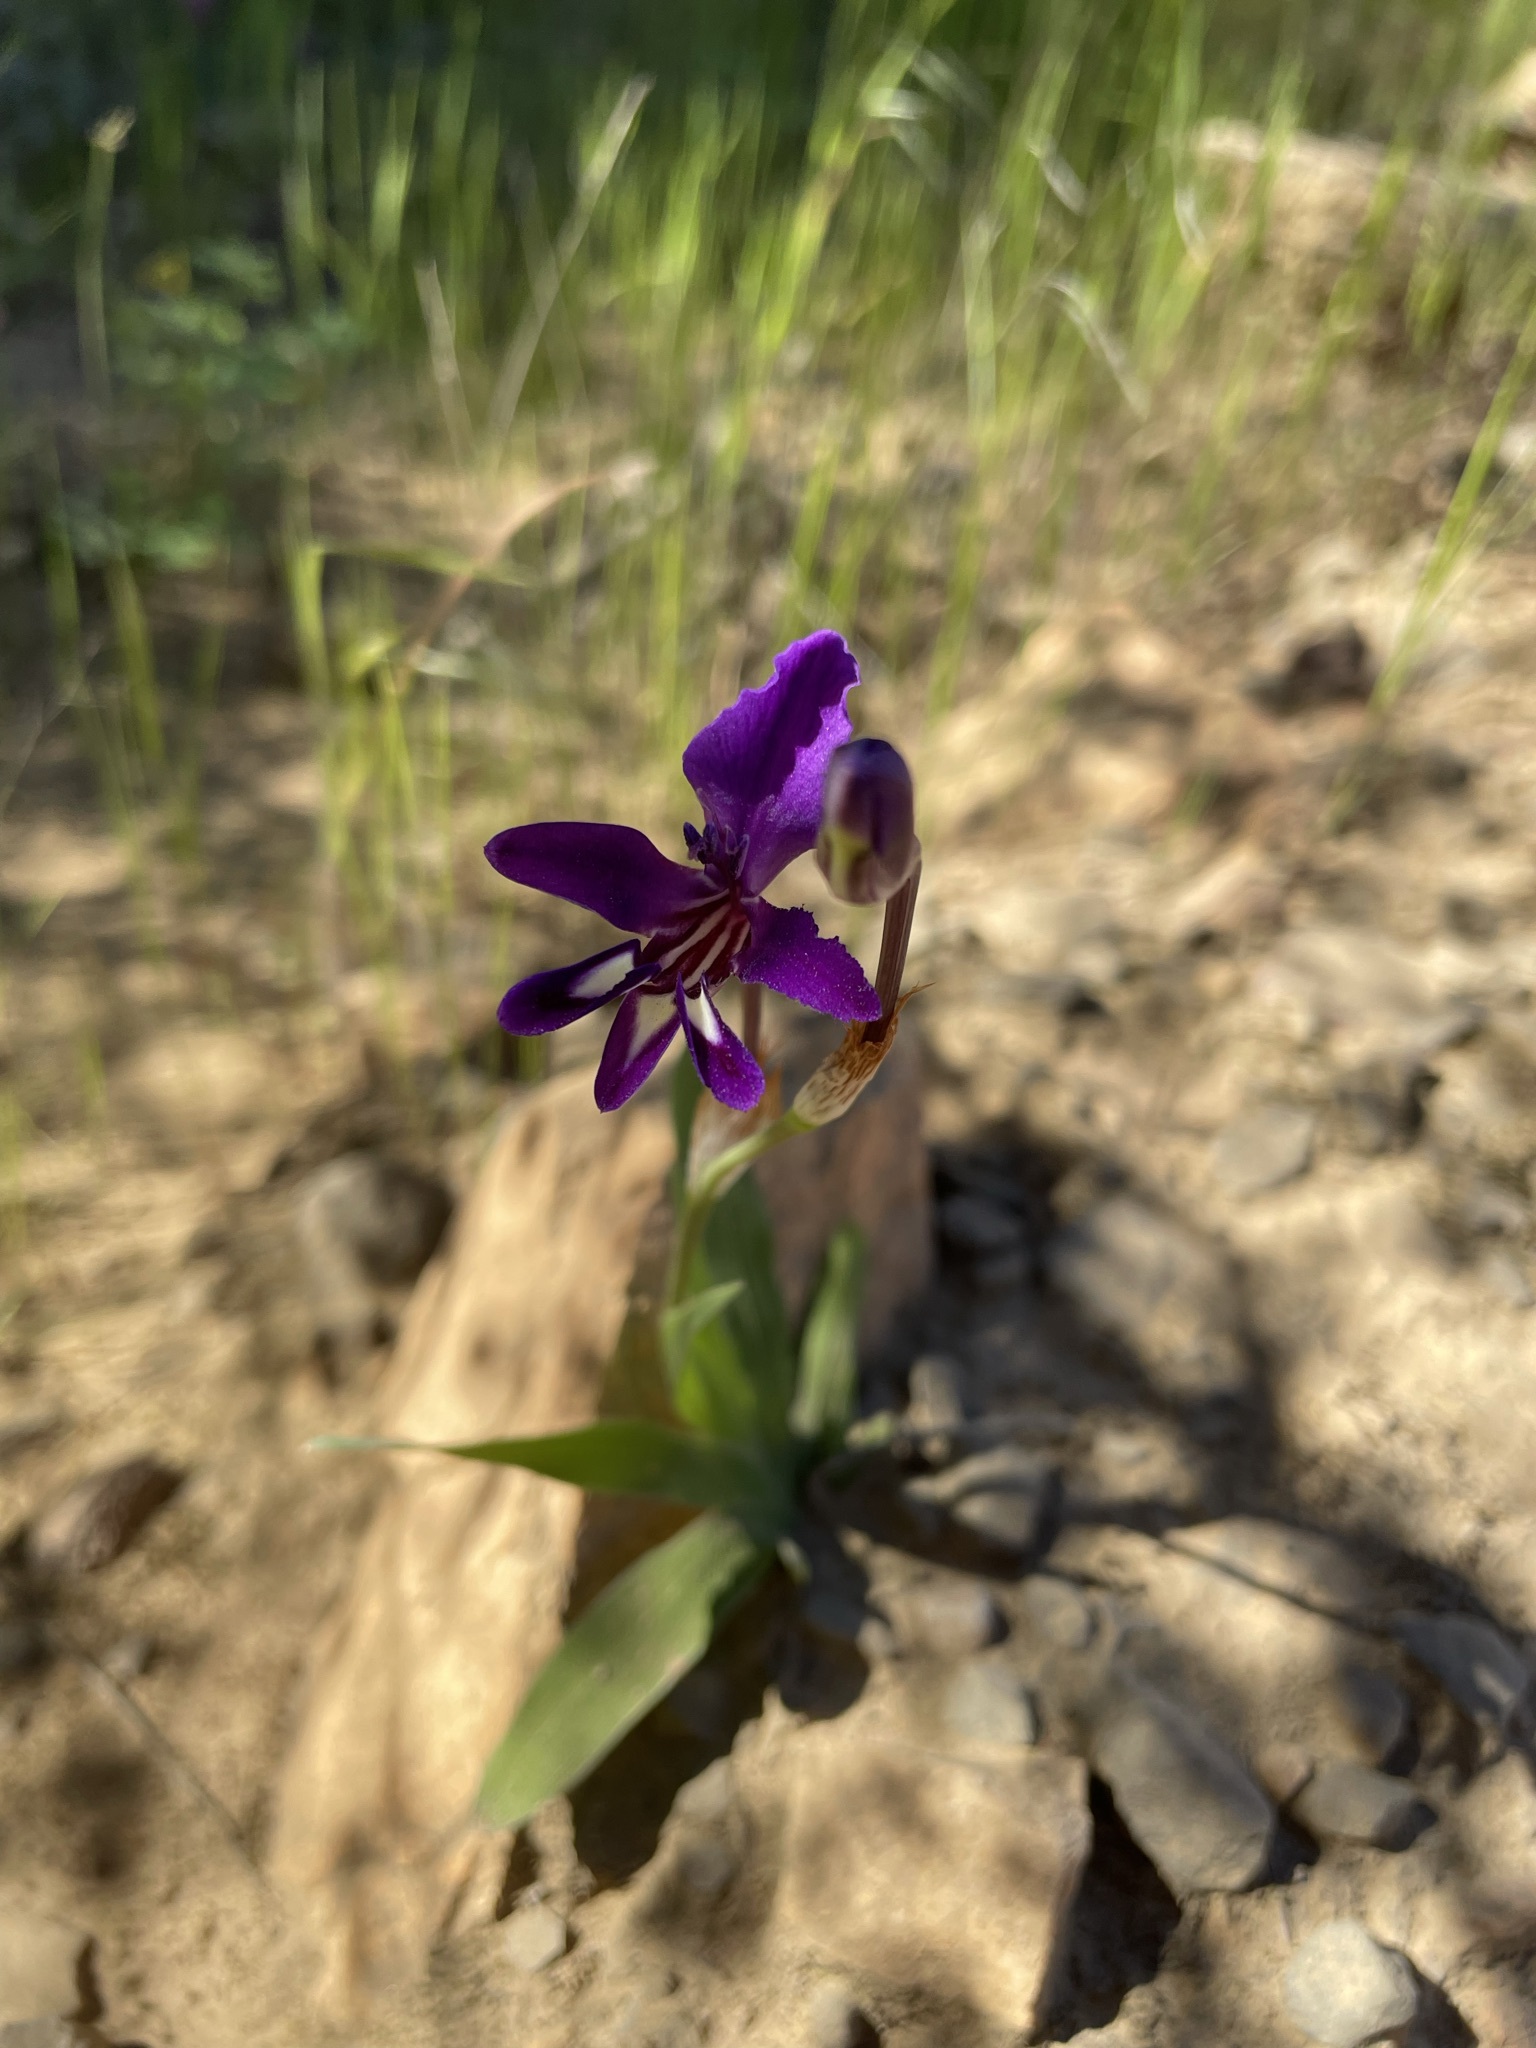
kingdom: Plantae
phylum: Tracheophyta
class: Liliopsida
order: Asparagales
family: Iridaceae
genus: Sparaxis
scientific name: Sparaxis metelerkampiae
